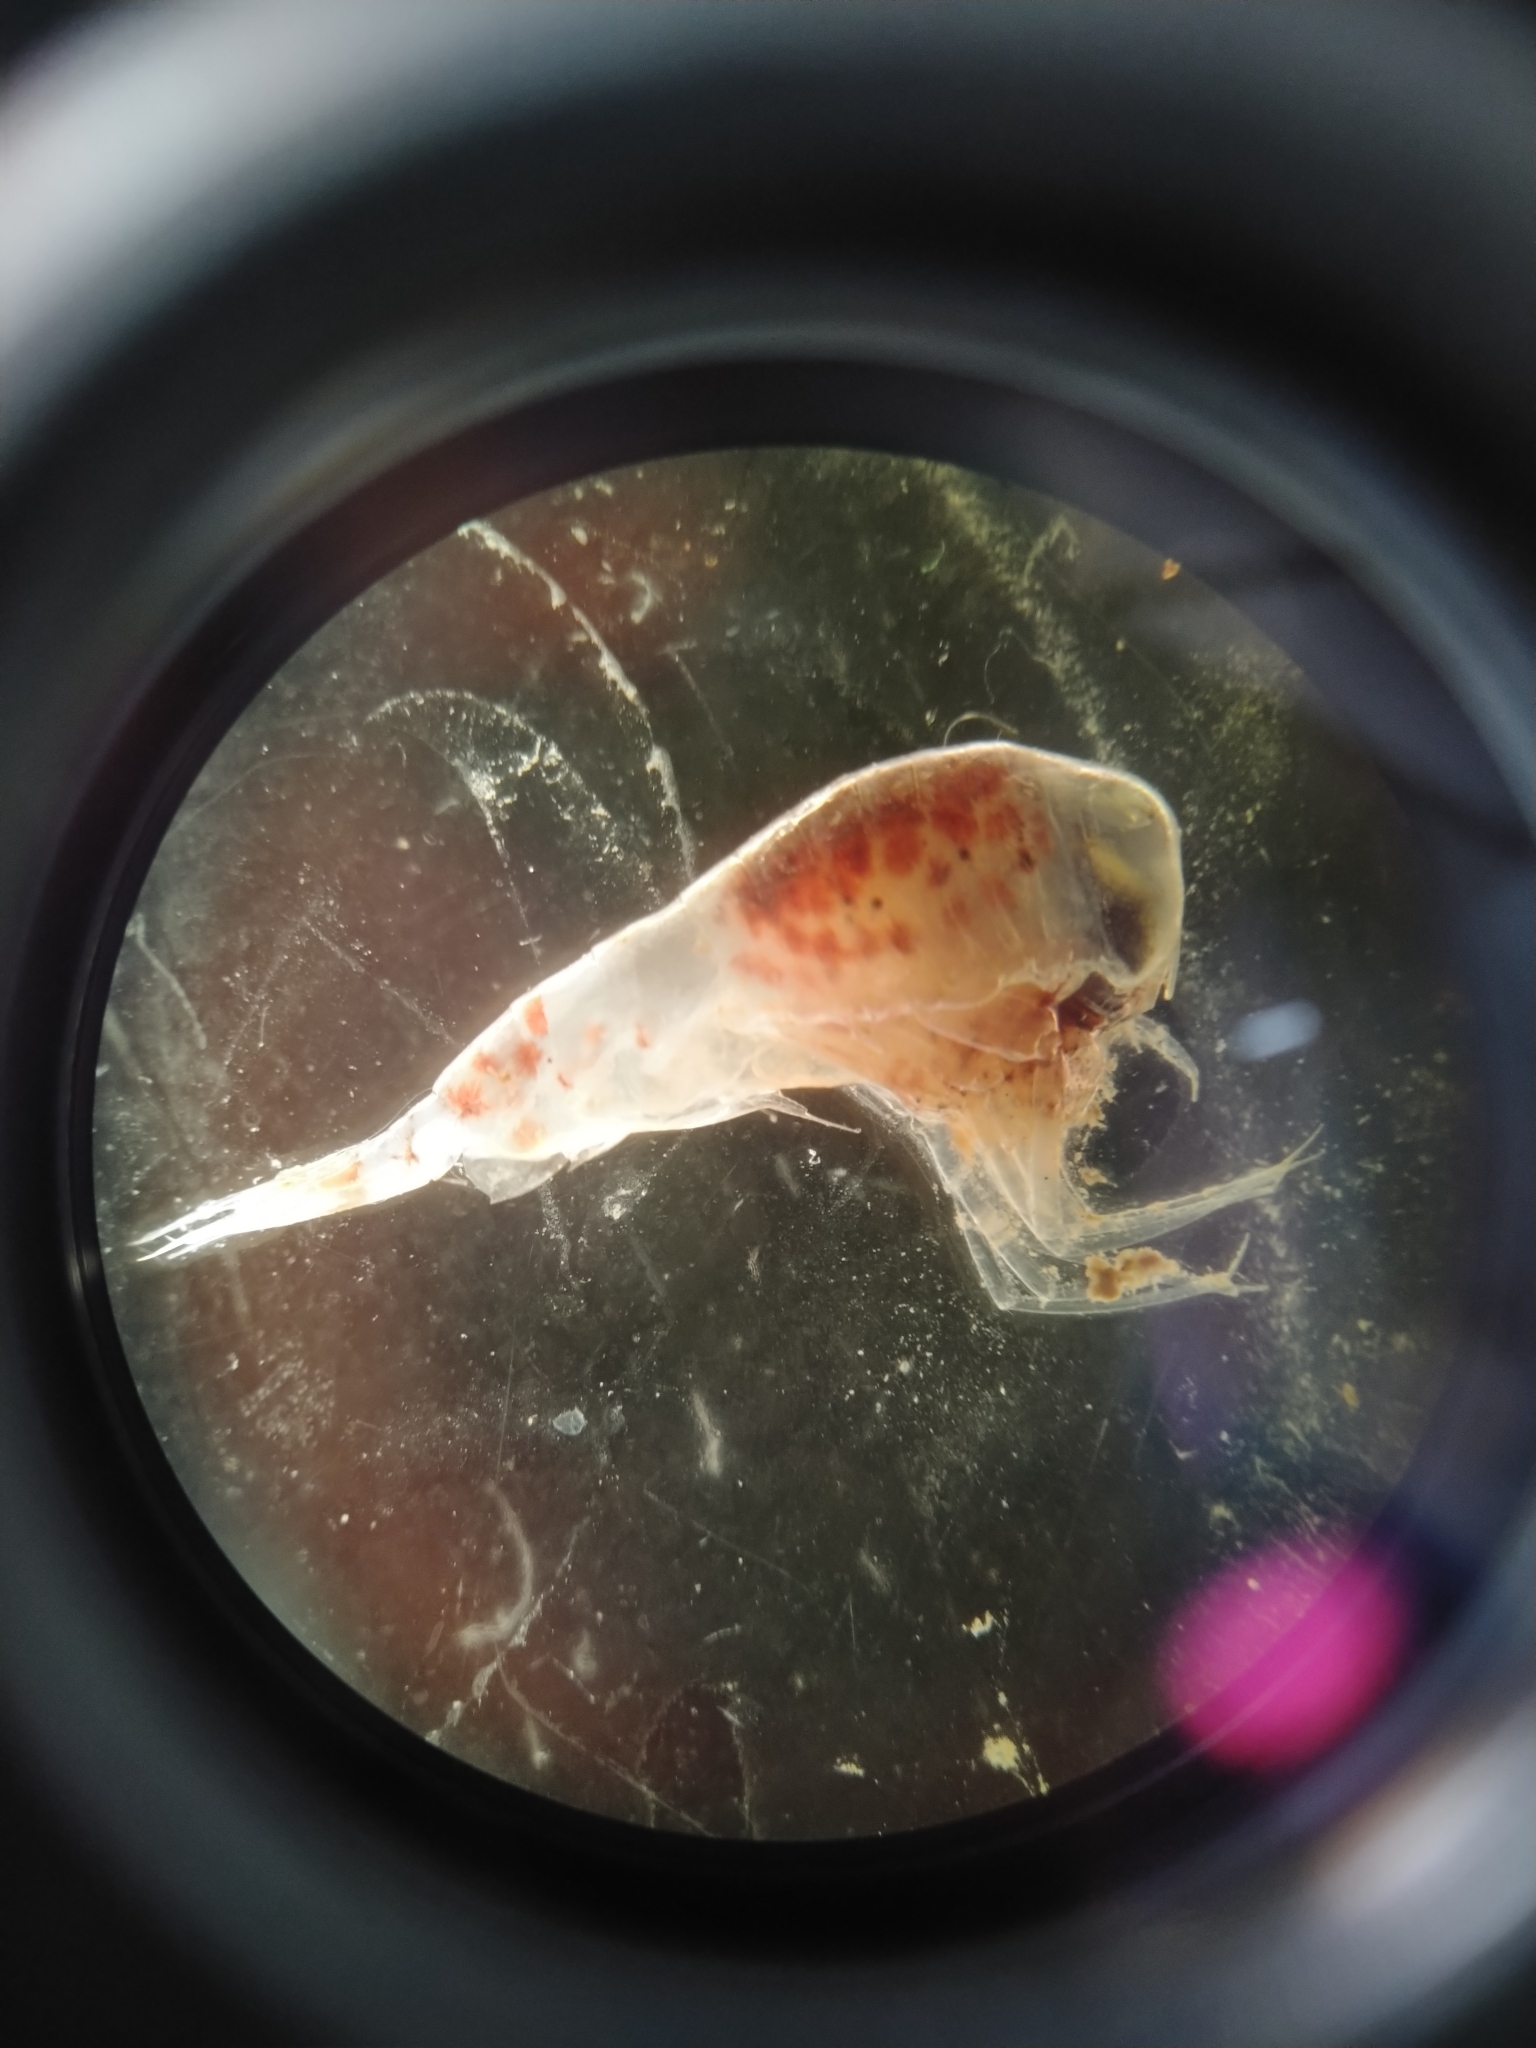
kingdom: Animalia
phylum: Arthropoda
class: Malacostraca
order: Amphipoda
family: Hyperiidae
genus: Themisto
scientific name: Themisto abyssorum
